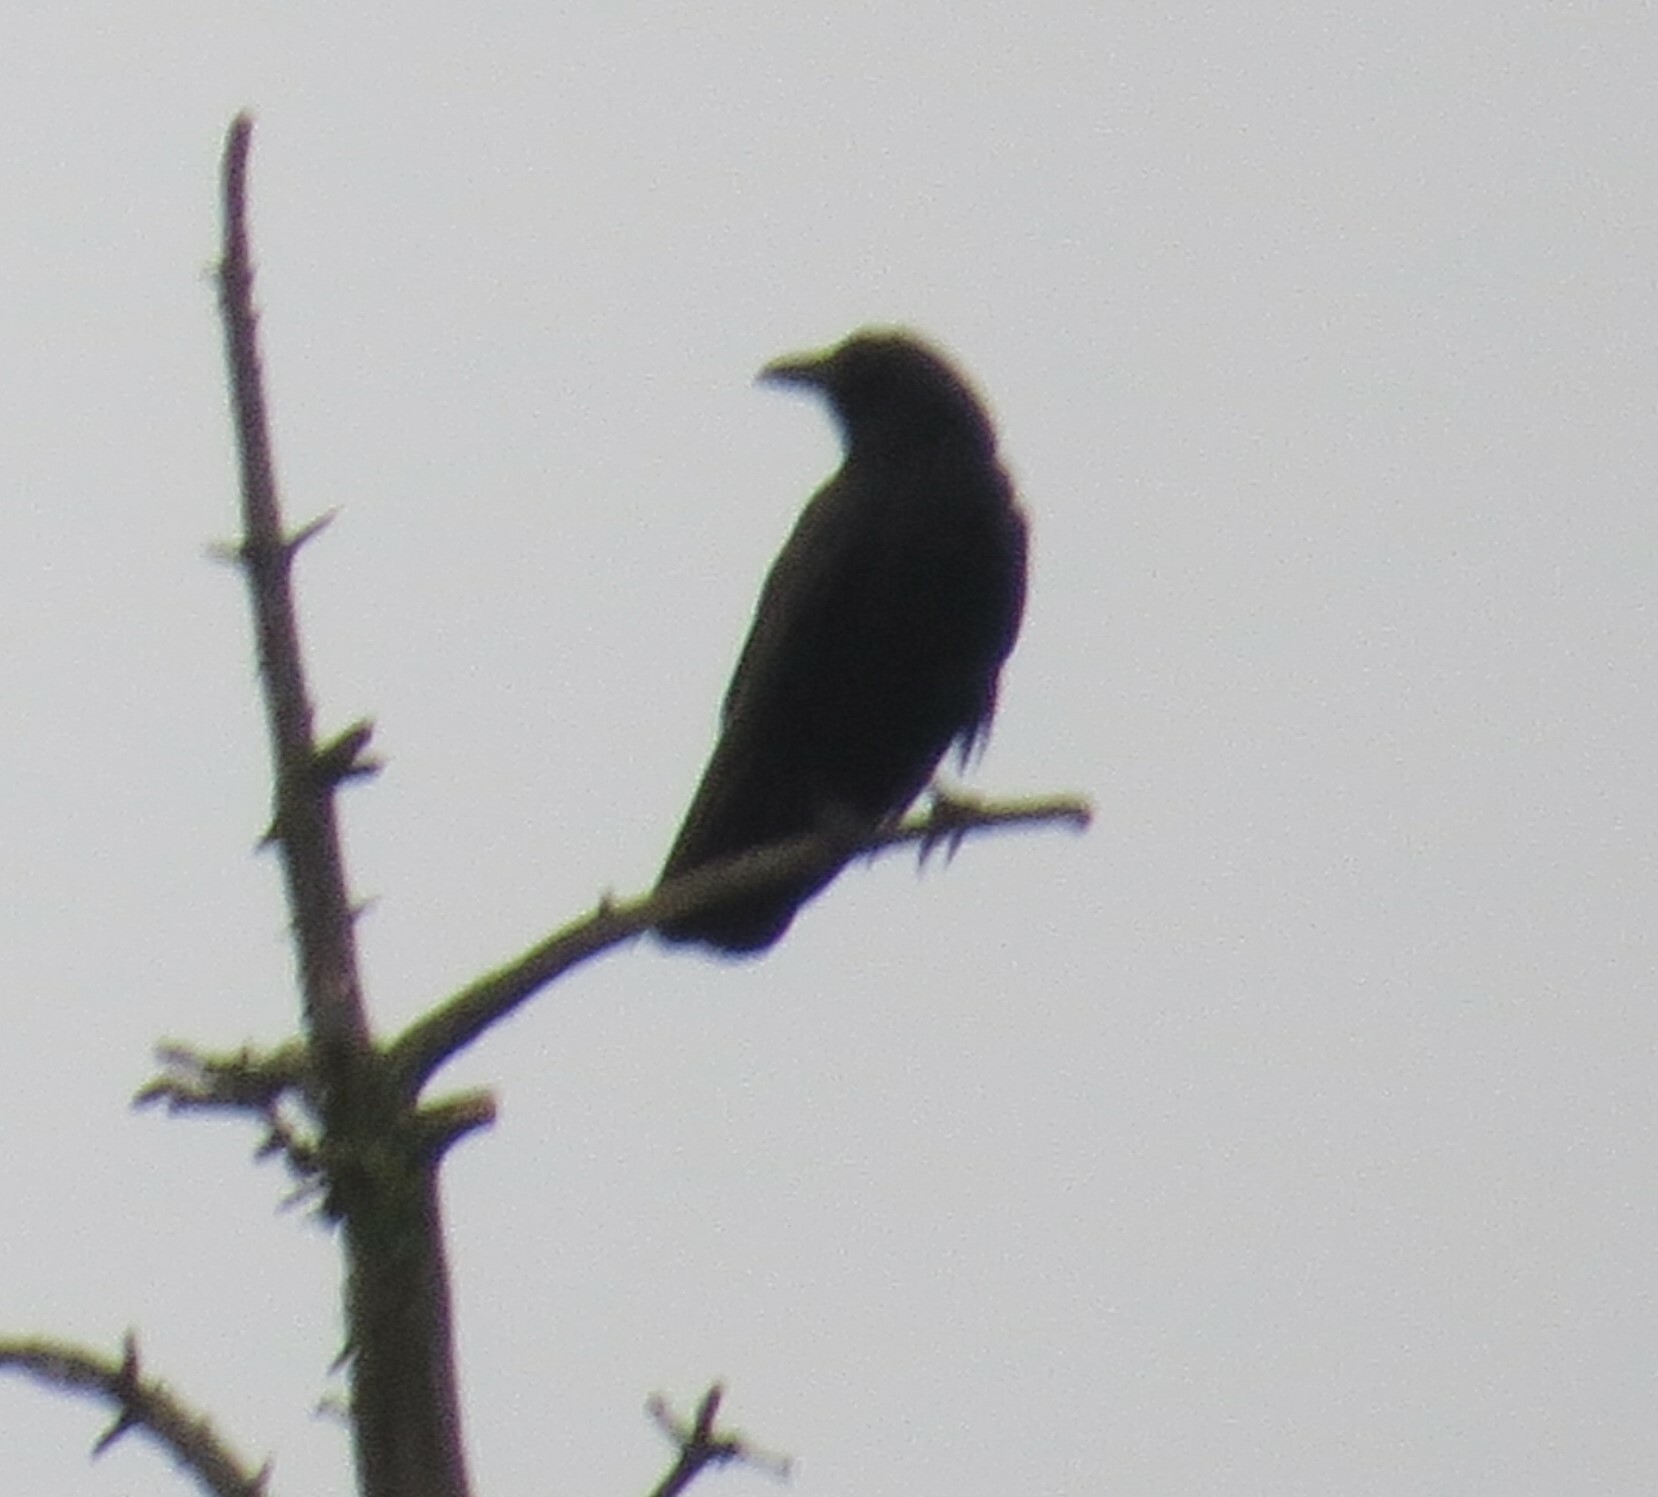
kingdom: Animalia
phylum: Chordata
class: Aves
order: Passeriformes
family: Corvidae
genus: Corvus
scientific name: Corvus brachyrhynchos
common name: American crow
